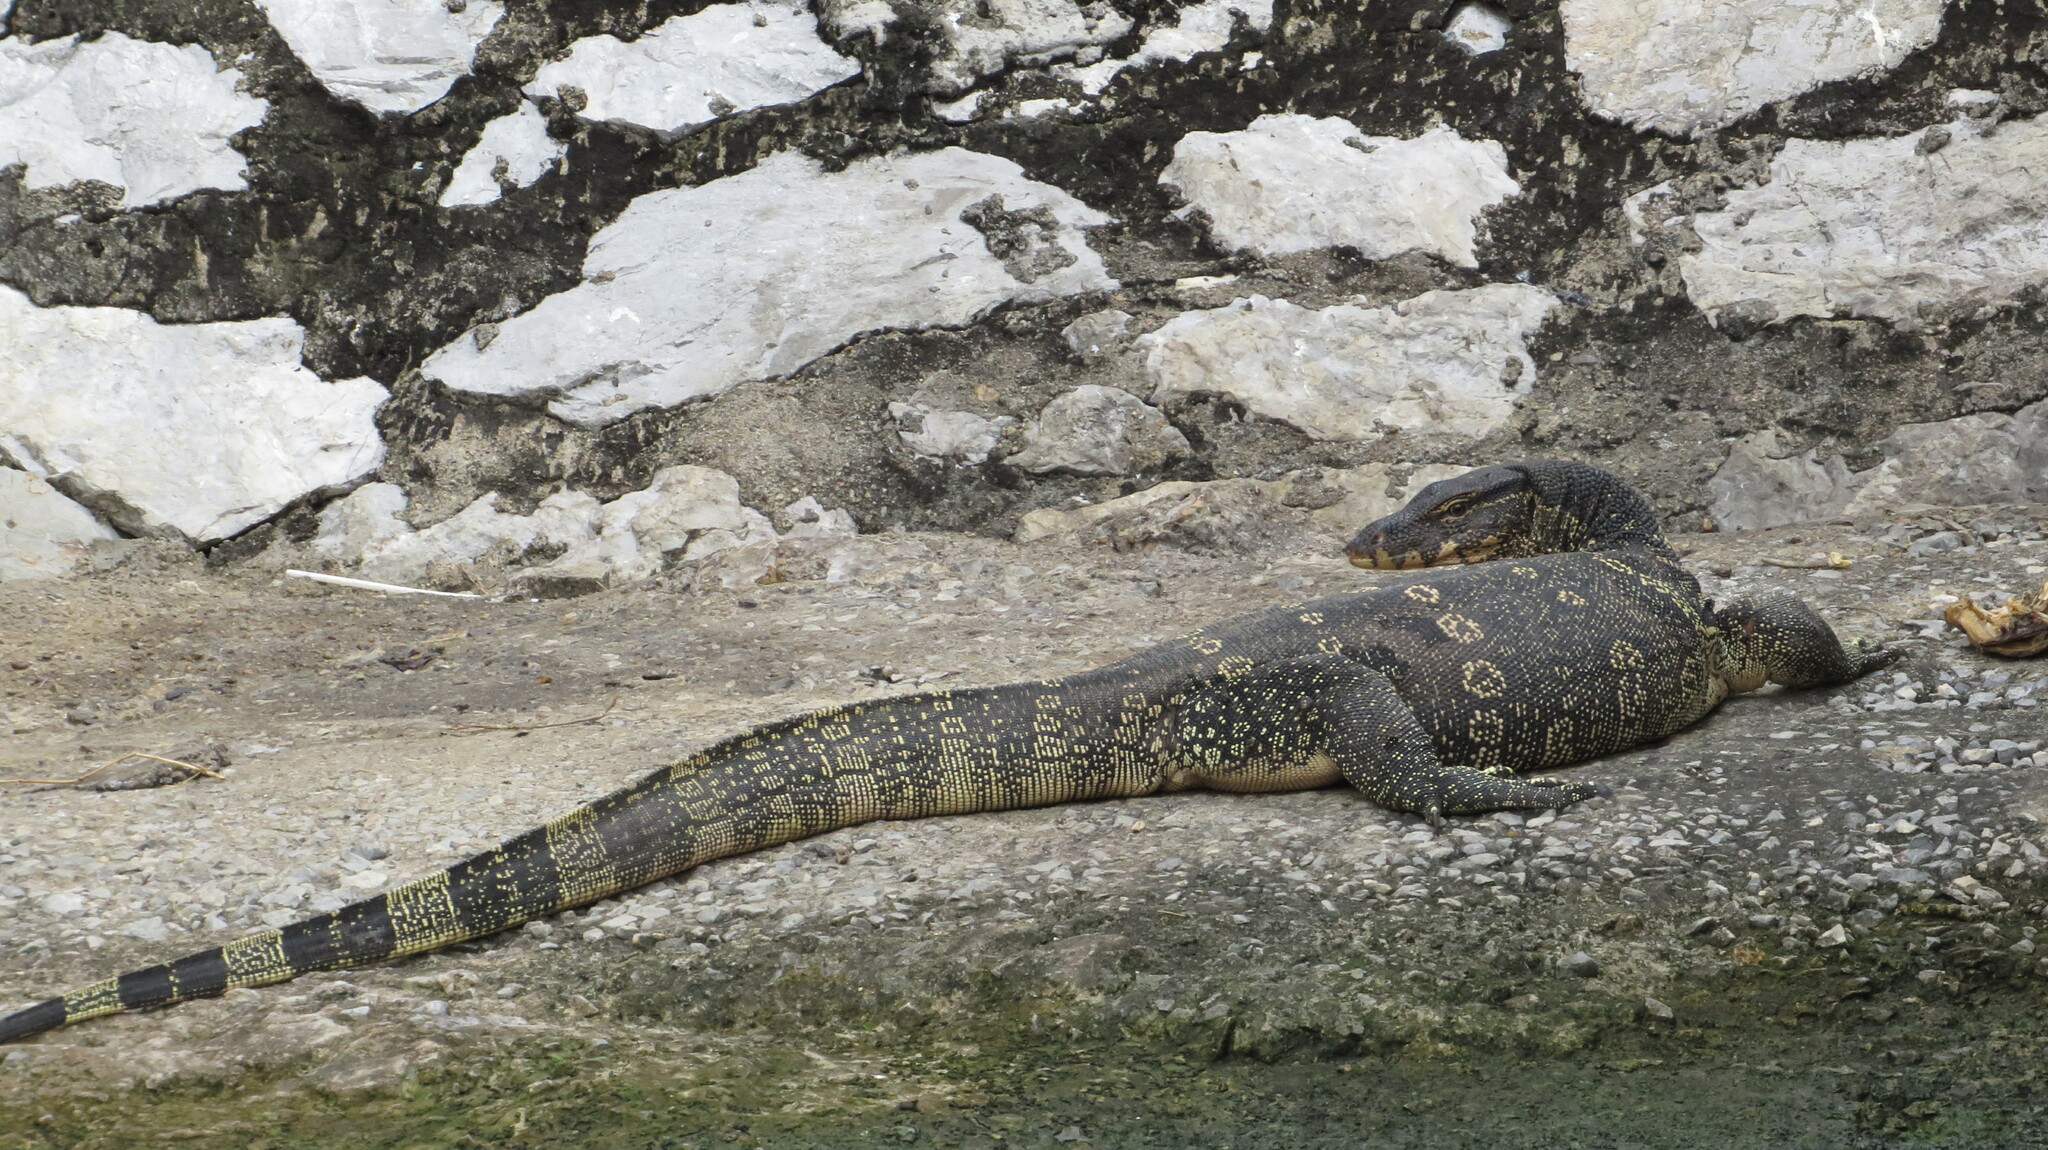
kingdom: Animalia
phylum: Chordata
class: Squamata
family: Varanidae
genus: Varanus
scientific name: Varanus salvator
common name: Common water monitor
